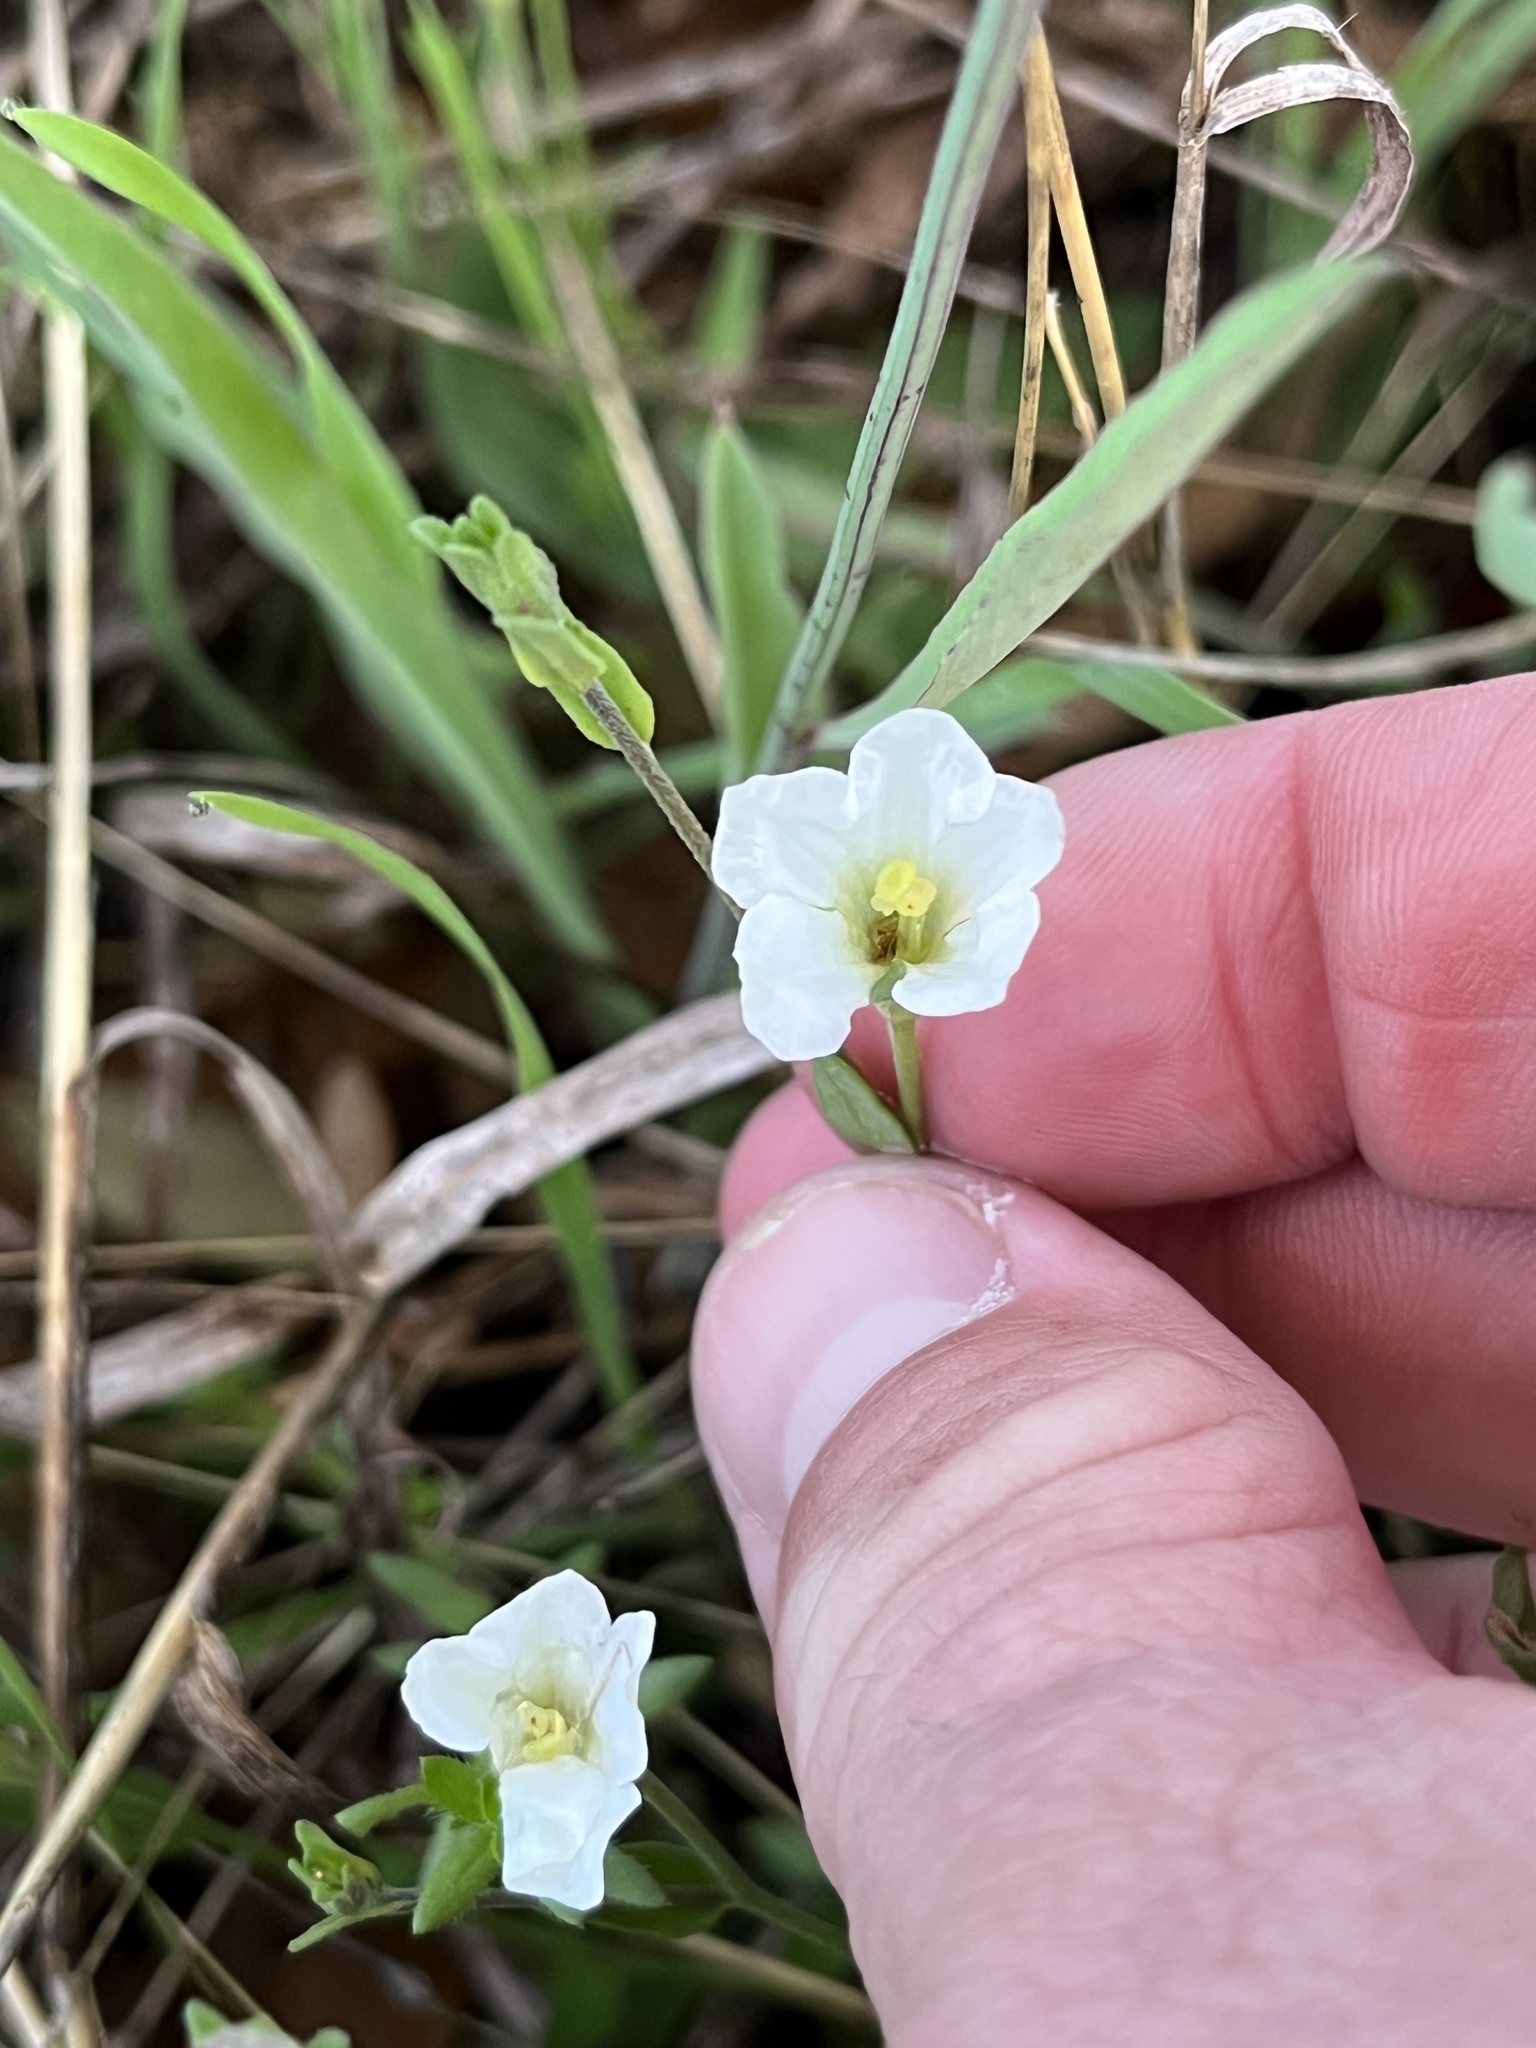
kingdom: Plantae
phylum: Tracheophyta
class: Magnoliopsida
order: Solanales
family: Solanaceae
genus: Salpiglossis
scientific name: Salpiglossis erecta
